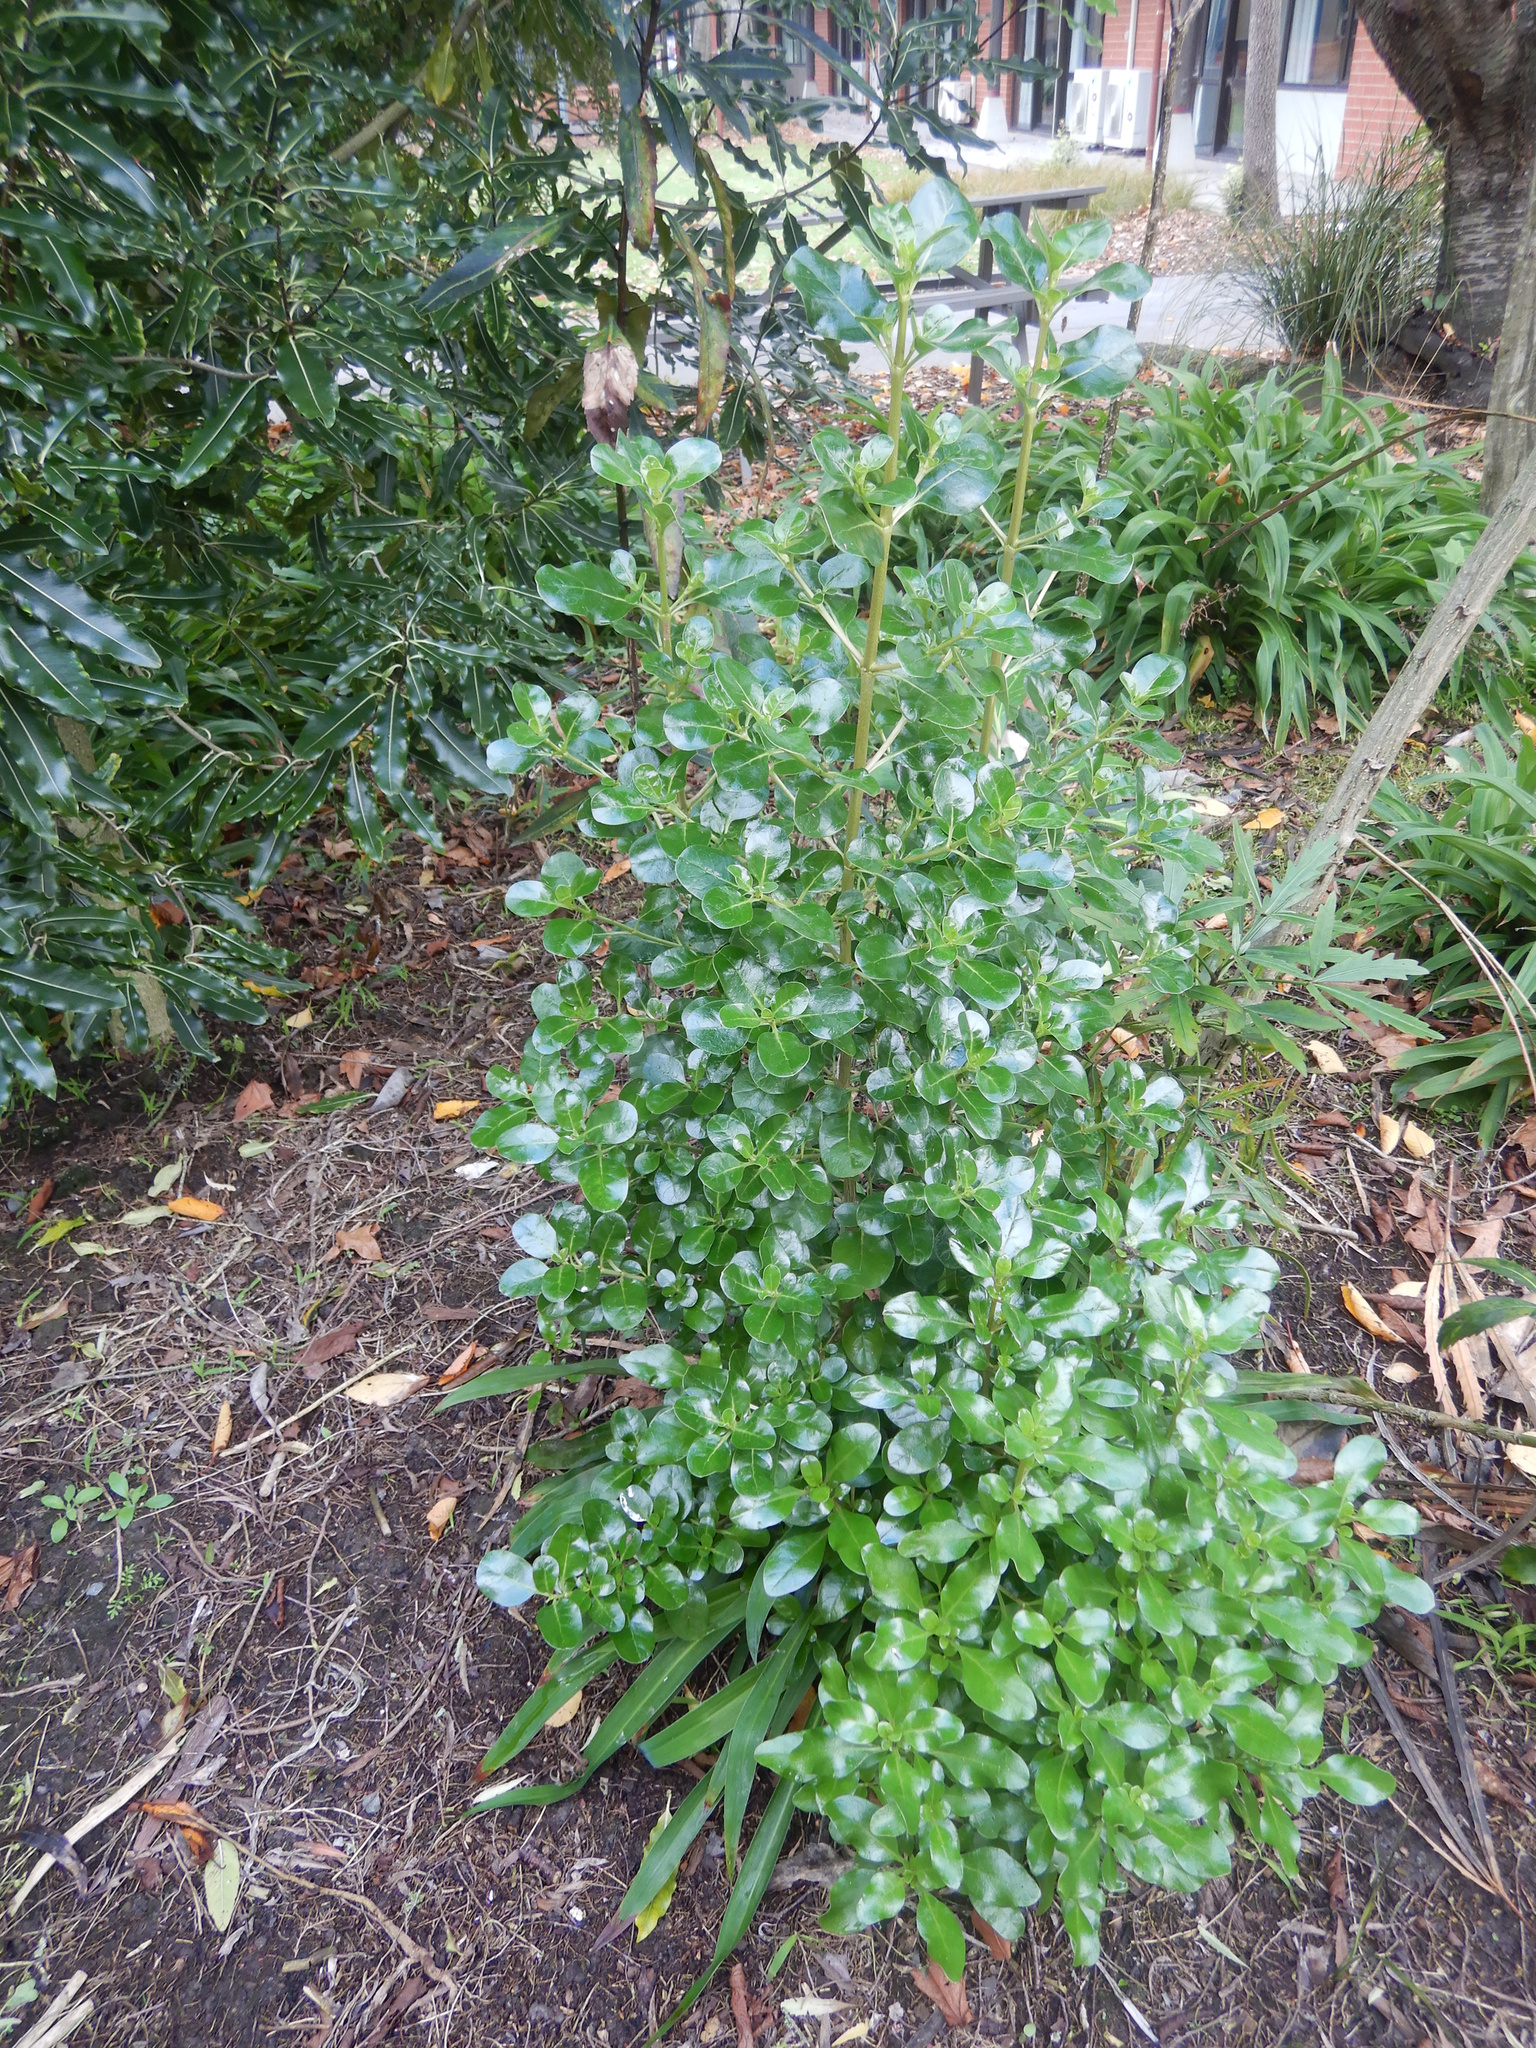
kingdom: Plantae
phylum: Tracheophyta
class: Magnoliopsida
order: Gentianales
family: Rubiaceae
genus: Coprosma
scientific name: Coprosma repens
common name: Tree bedstraw
